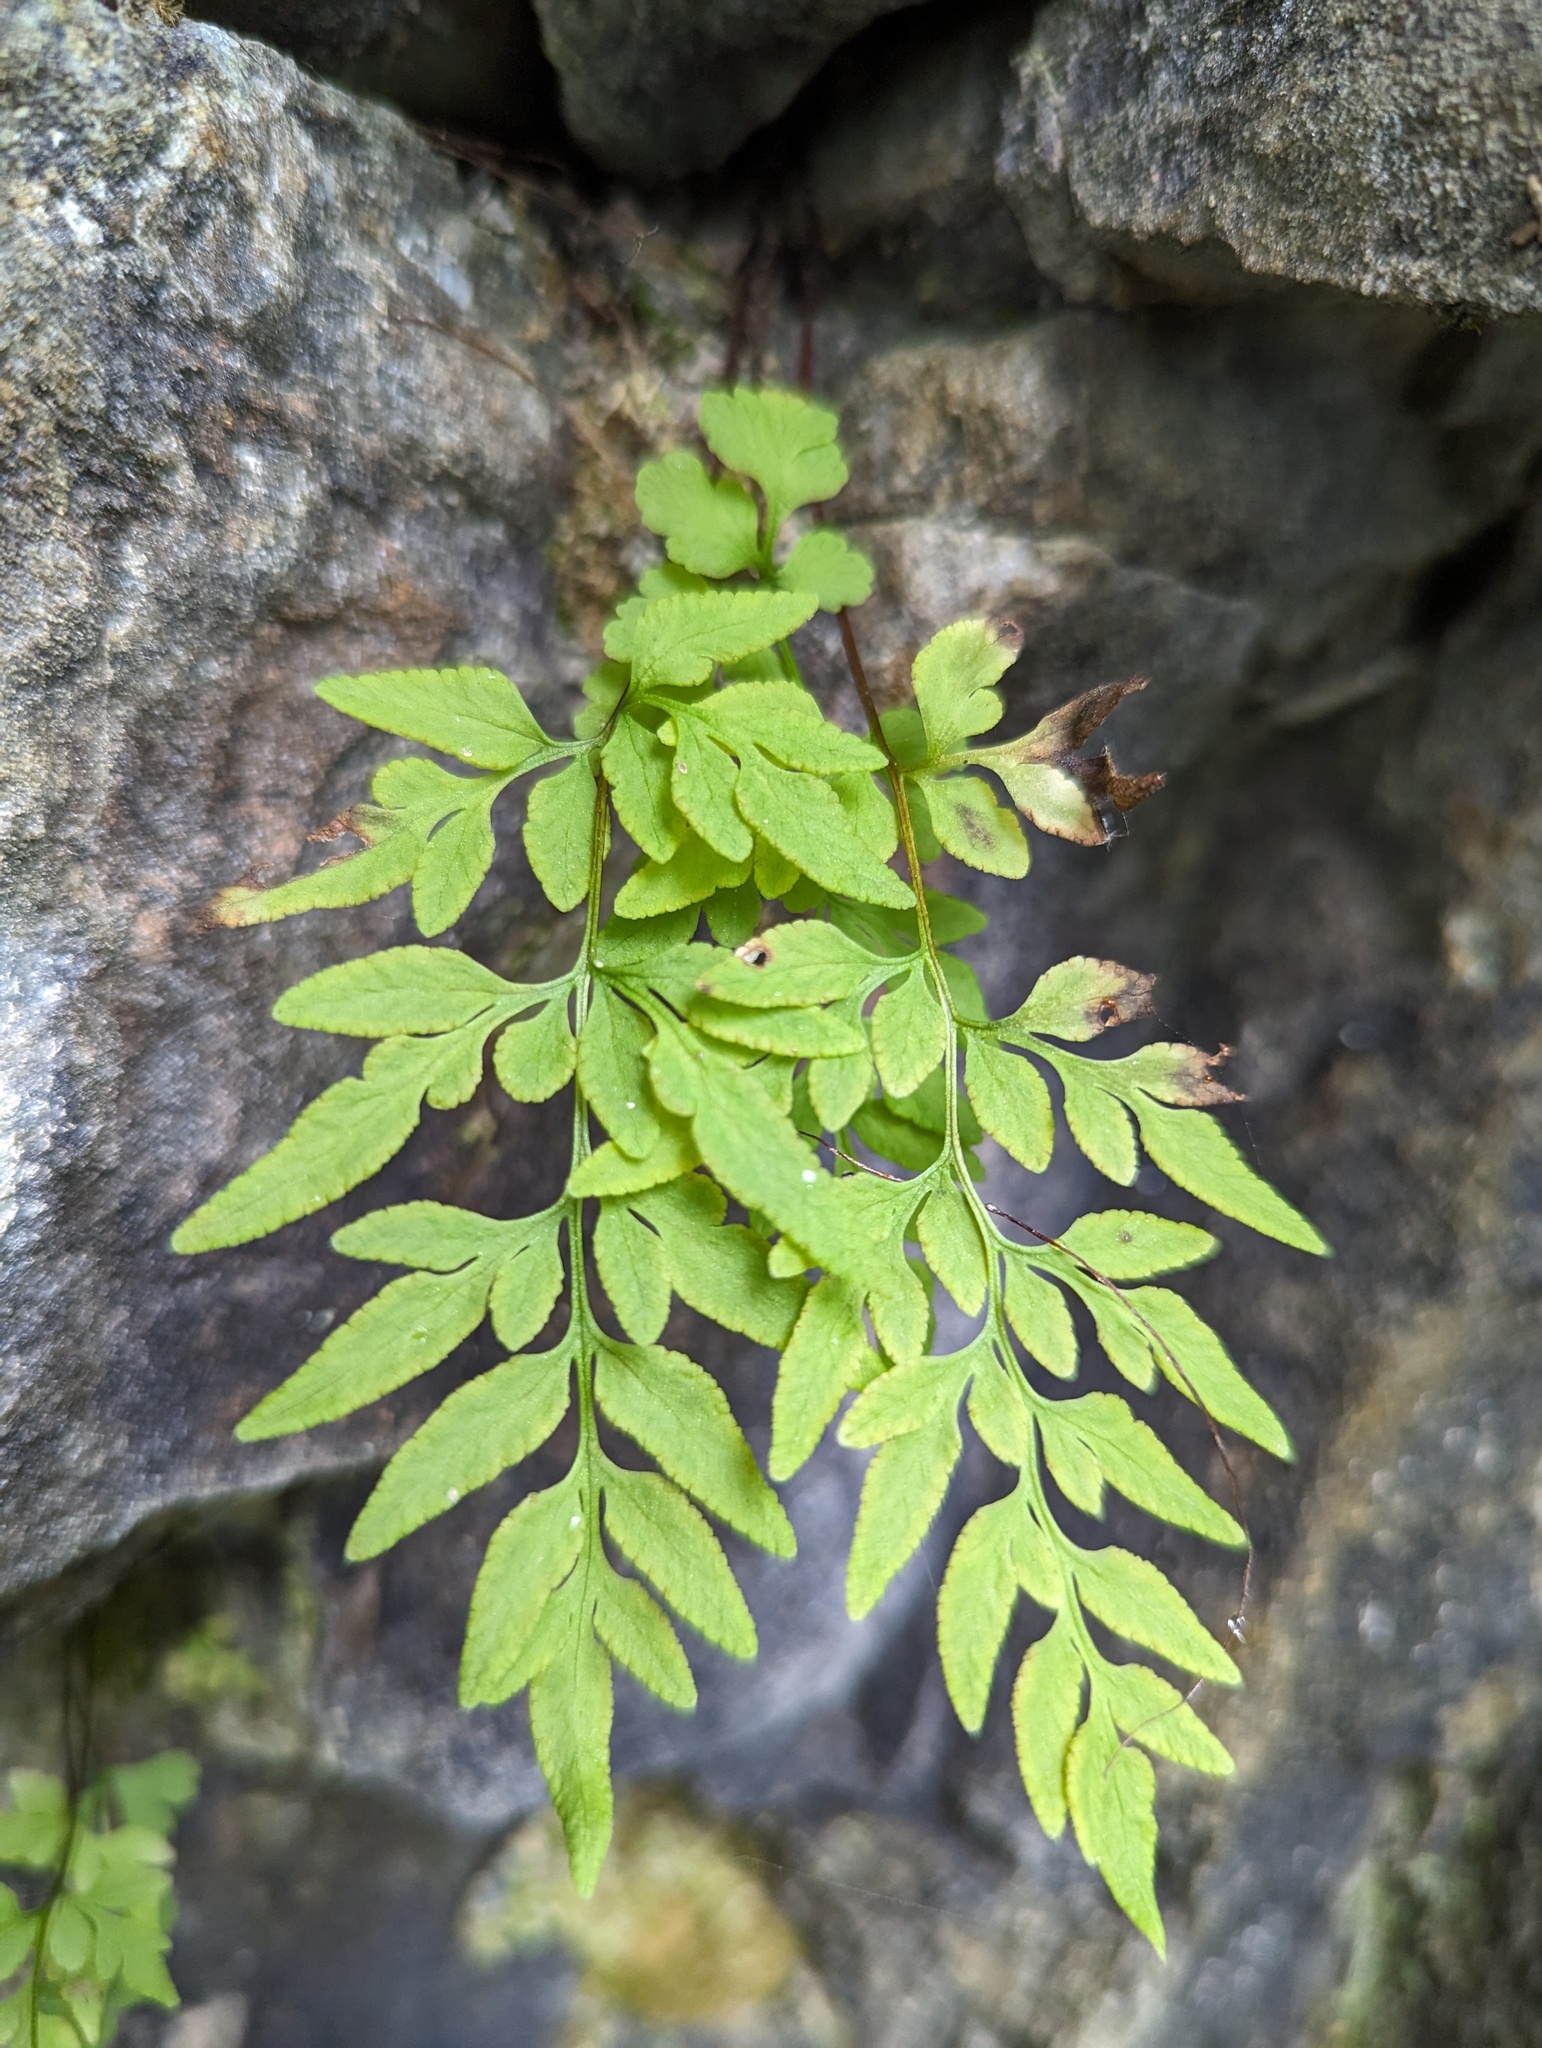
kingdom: Plantae
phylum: Tracheophyta
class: Polypodiopsida
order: Polypodiales
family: Pteridaceae
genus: Cryptogramma
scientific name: Cryptogramma stelleri
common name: Cliff-brake
